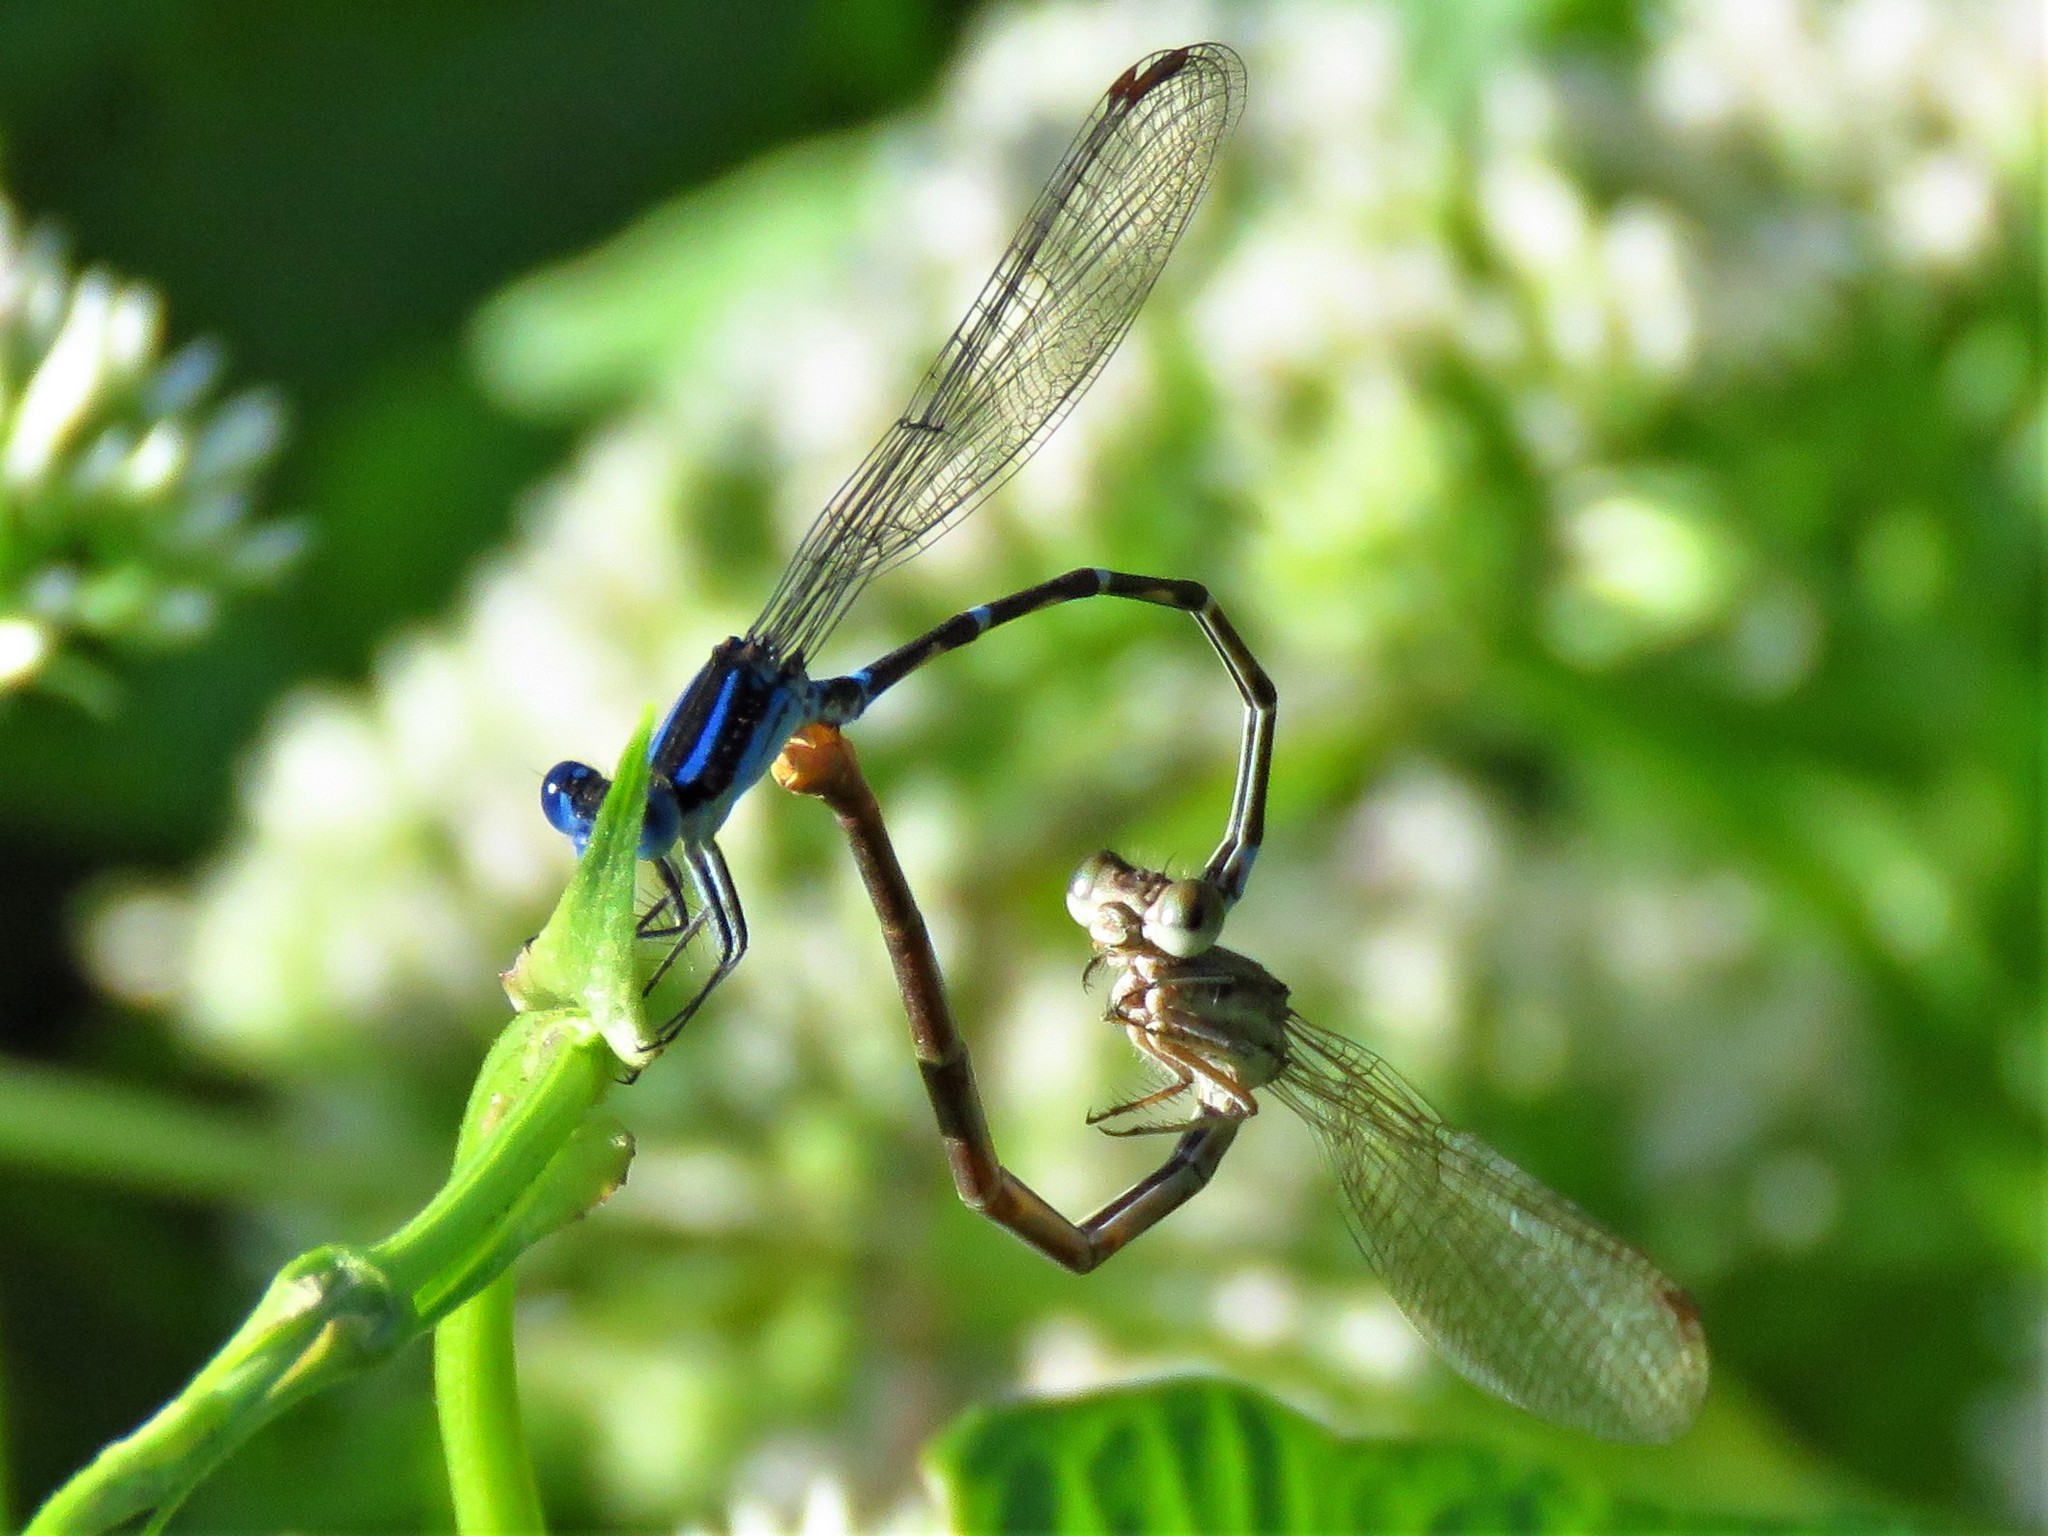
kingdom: Animalia
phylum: Arthropoda
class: Insecta
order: Odonata
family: Coenagrionidae
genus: Argia
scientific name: Argia sedula
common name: Blue-ringed dancer
